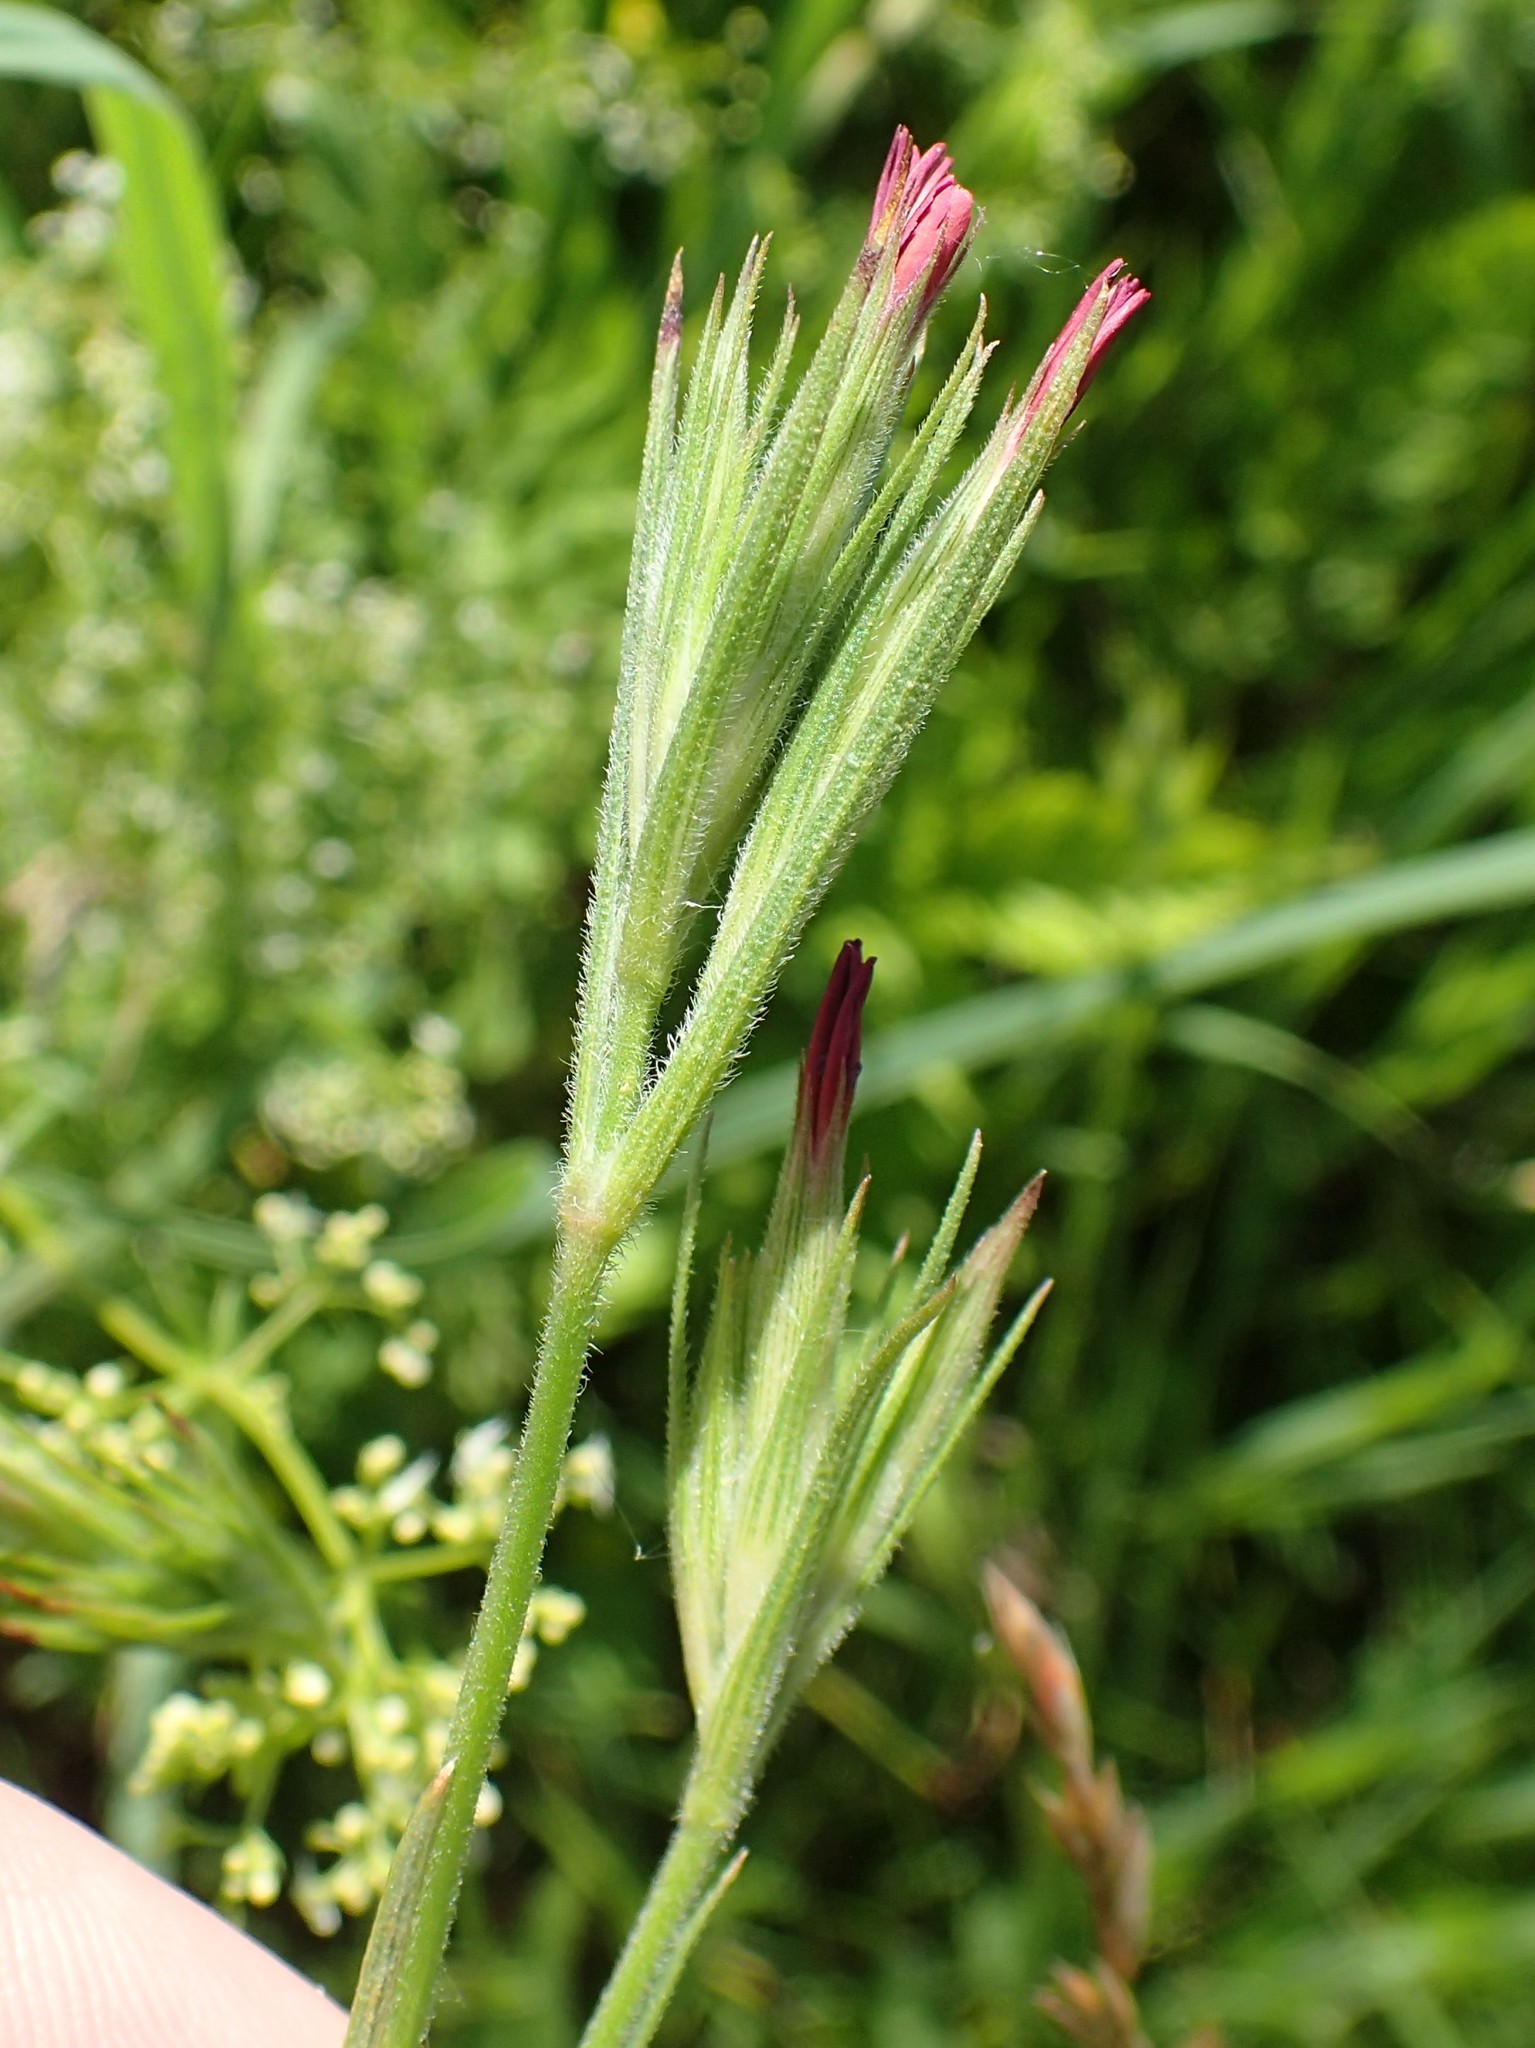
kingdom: Plantae
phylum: Tracheophyta
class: Magnoliopsida
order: Caryophyllales
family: Caryophyllaceae
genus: Dianthus
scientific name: Dianthus armeria
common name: Deptford pink
